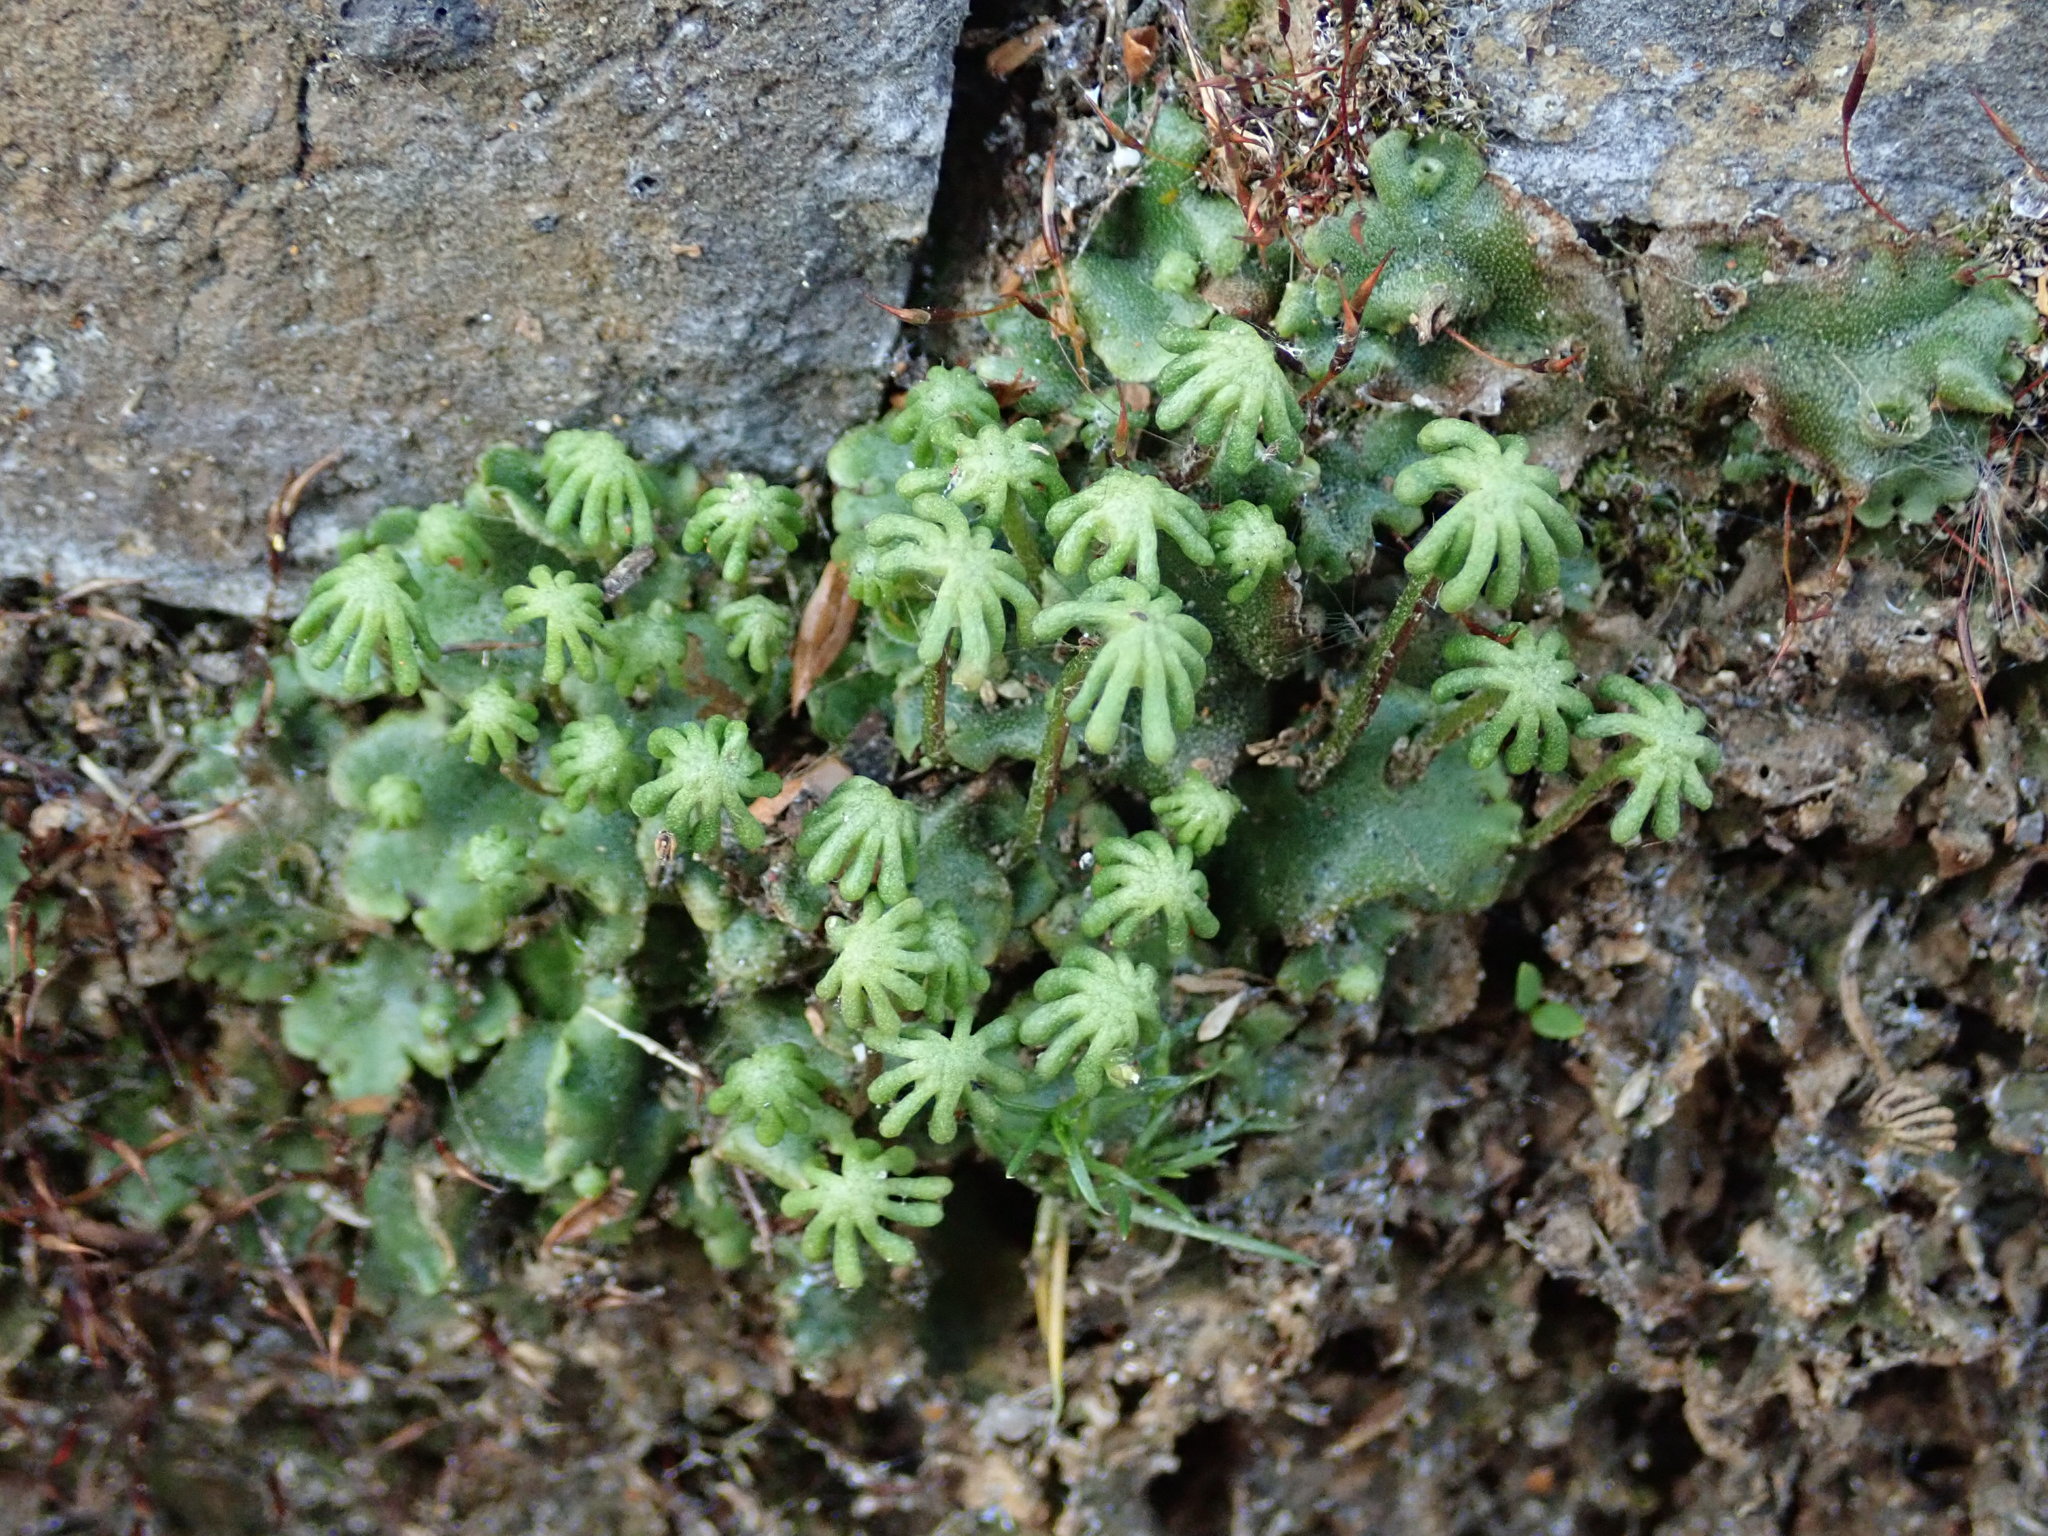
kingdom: Plantae
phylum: Marchantiophyta
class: Marchantiopsida
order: Marchantiales
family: Marchantiaceae
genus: Marchantia
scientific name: Marchantia polymorpha
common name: Common liverwort
